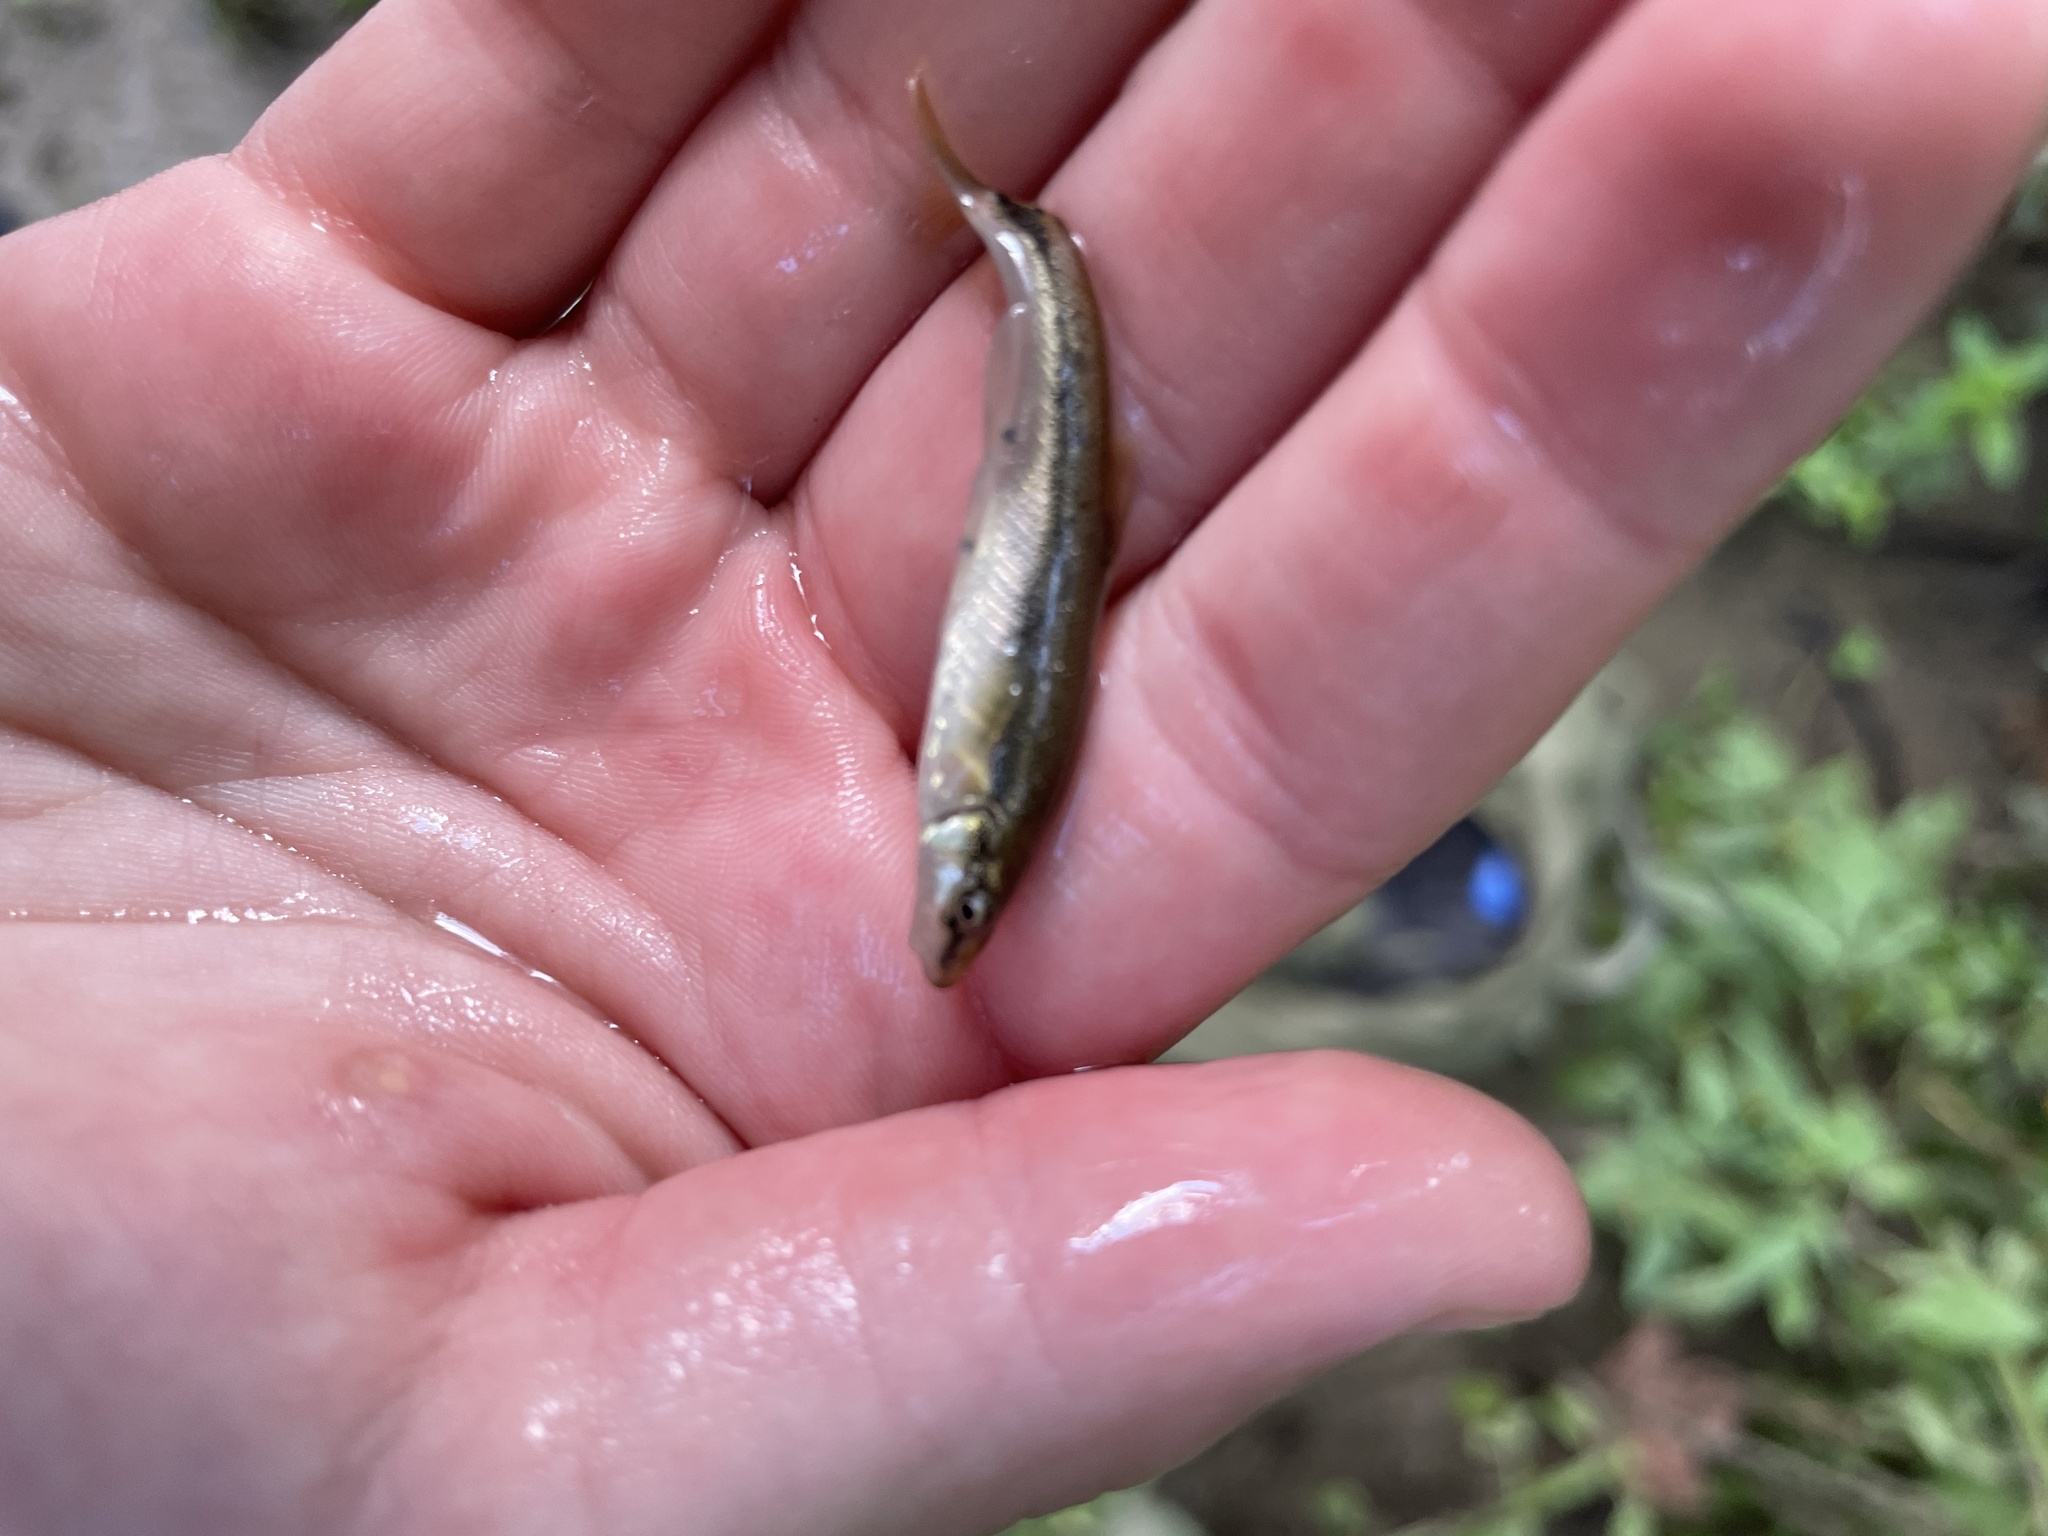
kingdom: Animalia
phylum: Chordata
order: Cypriniformes
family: Cyprinidae
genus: Rhinichthys
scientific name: Rhinichthys obtusus
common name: Western blacknose dace
